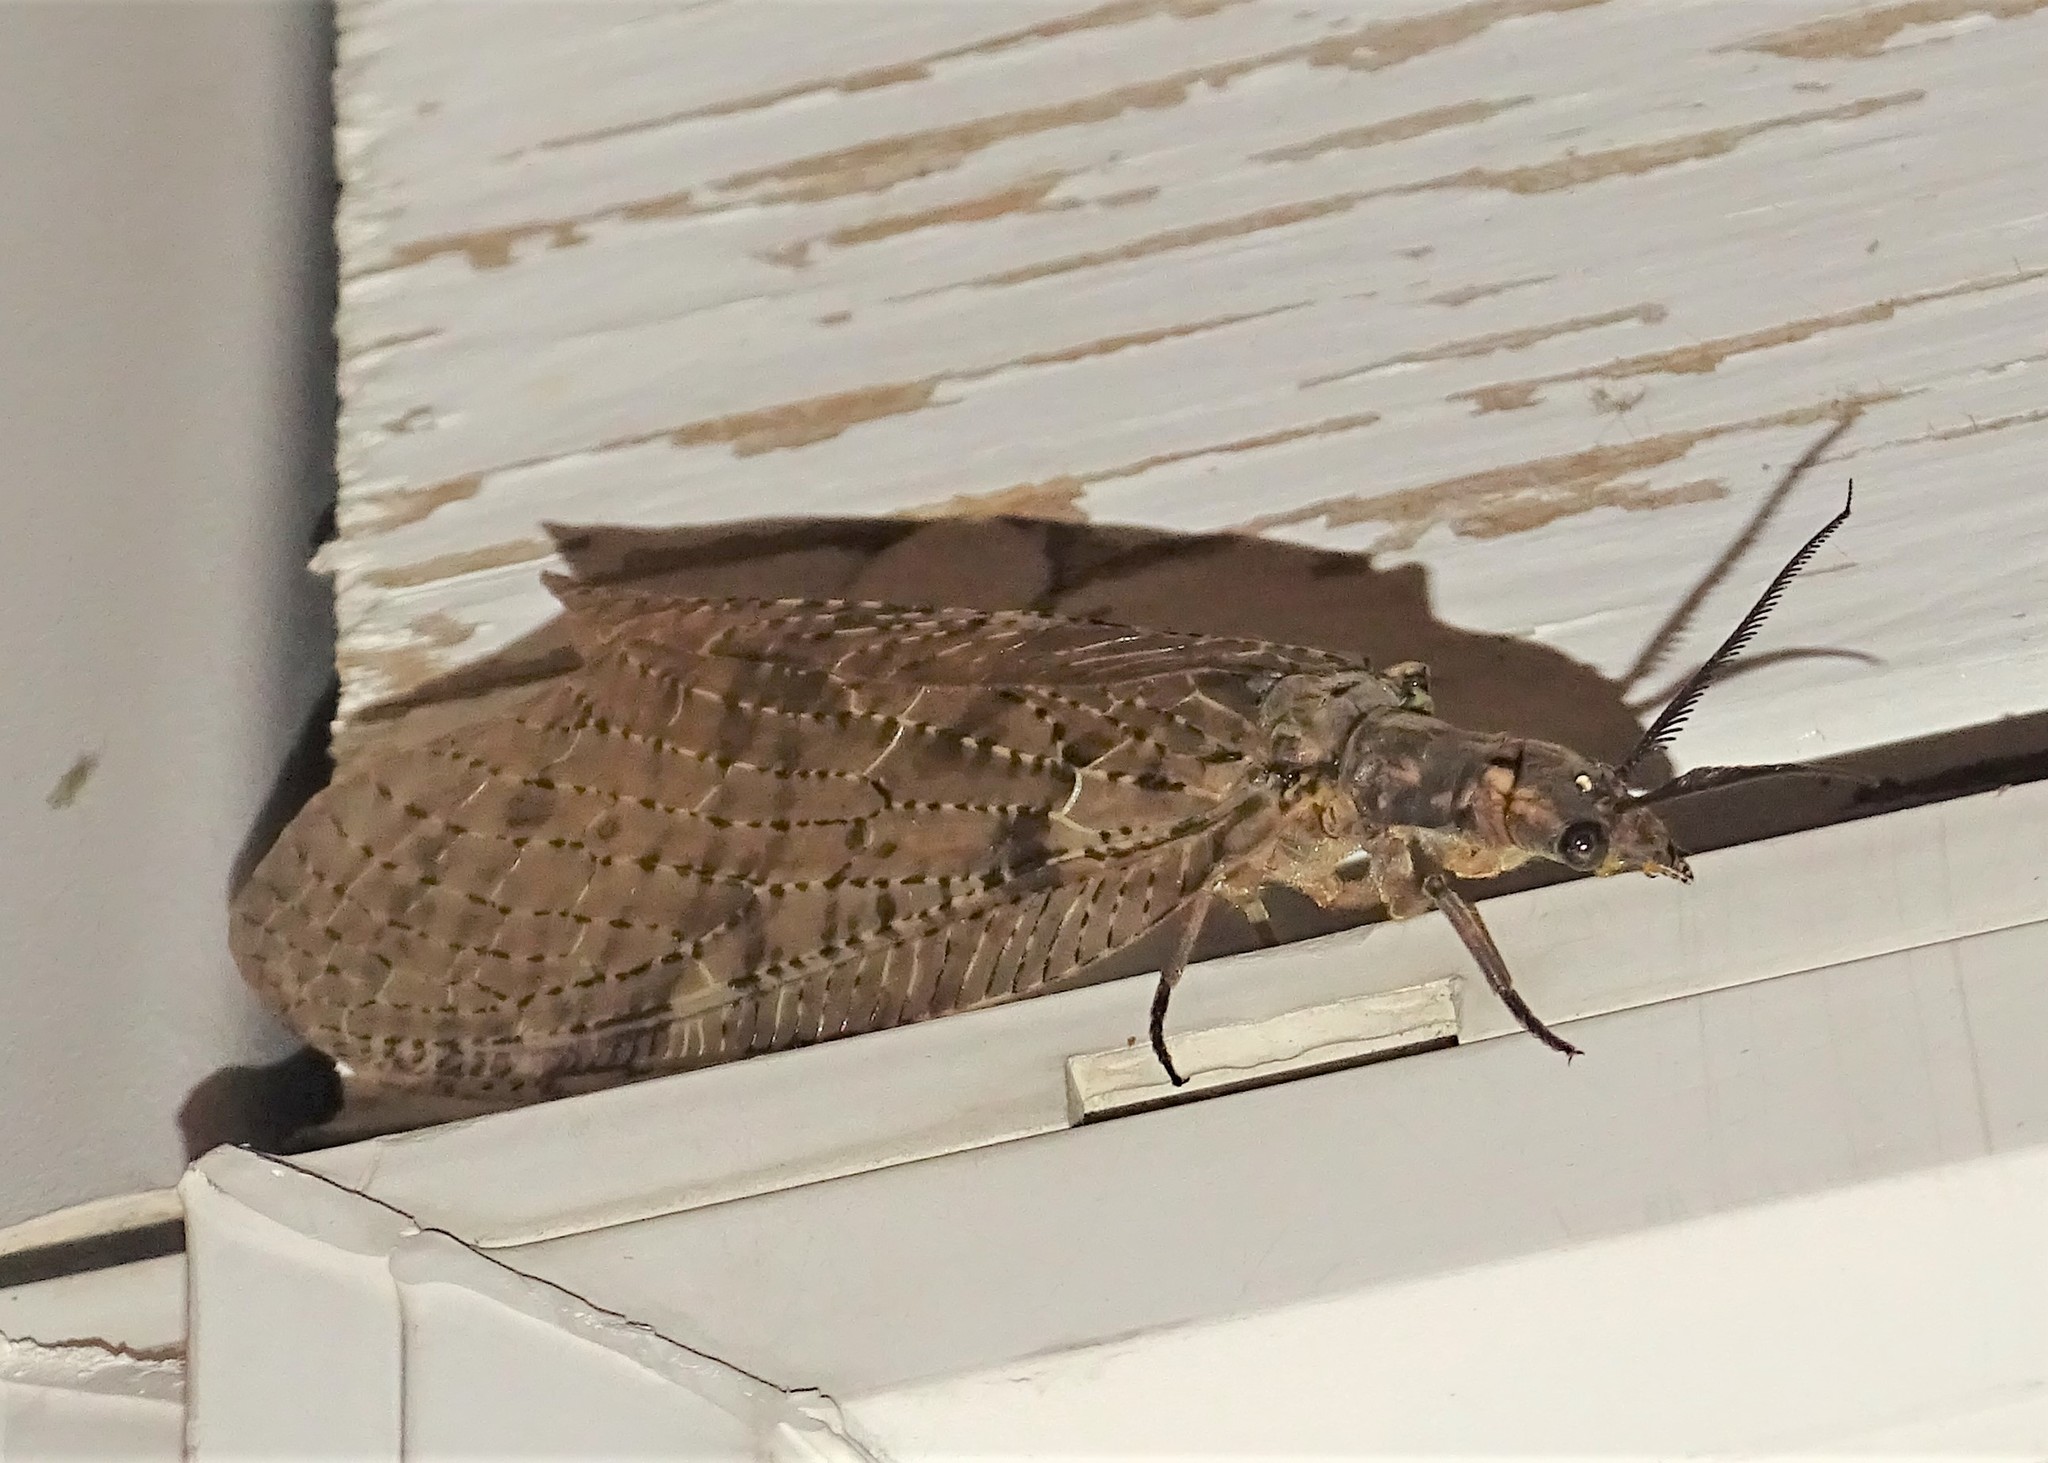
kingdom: Animalia
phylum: Arthropoda
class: Insecta
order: Megaloptera
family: Corydalidae
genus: Chauliodes
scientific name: Chauliodes pectinicornis
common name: Summer fishfly
